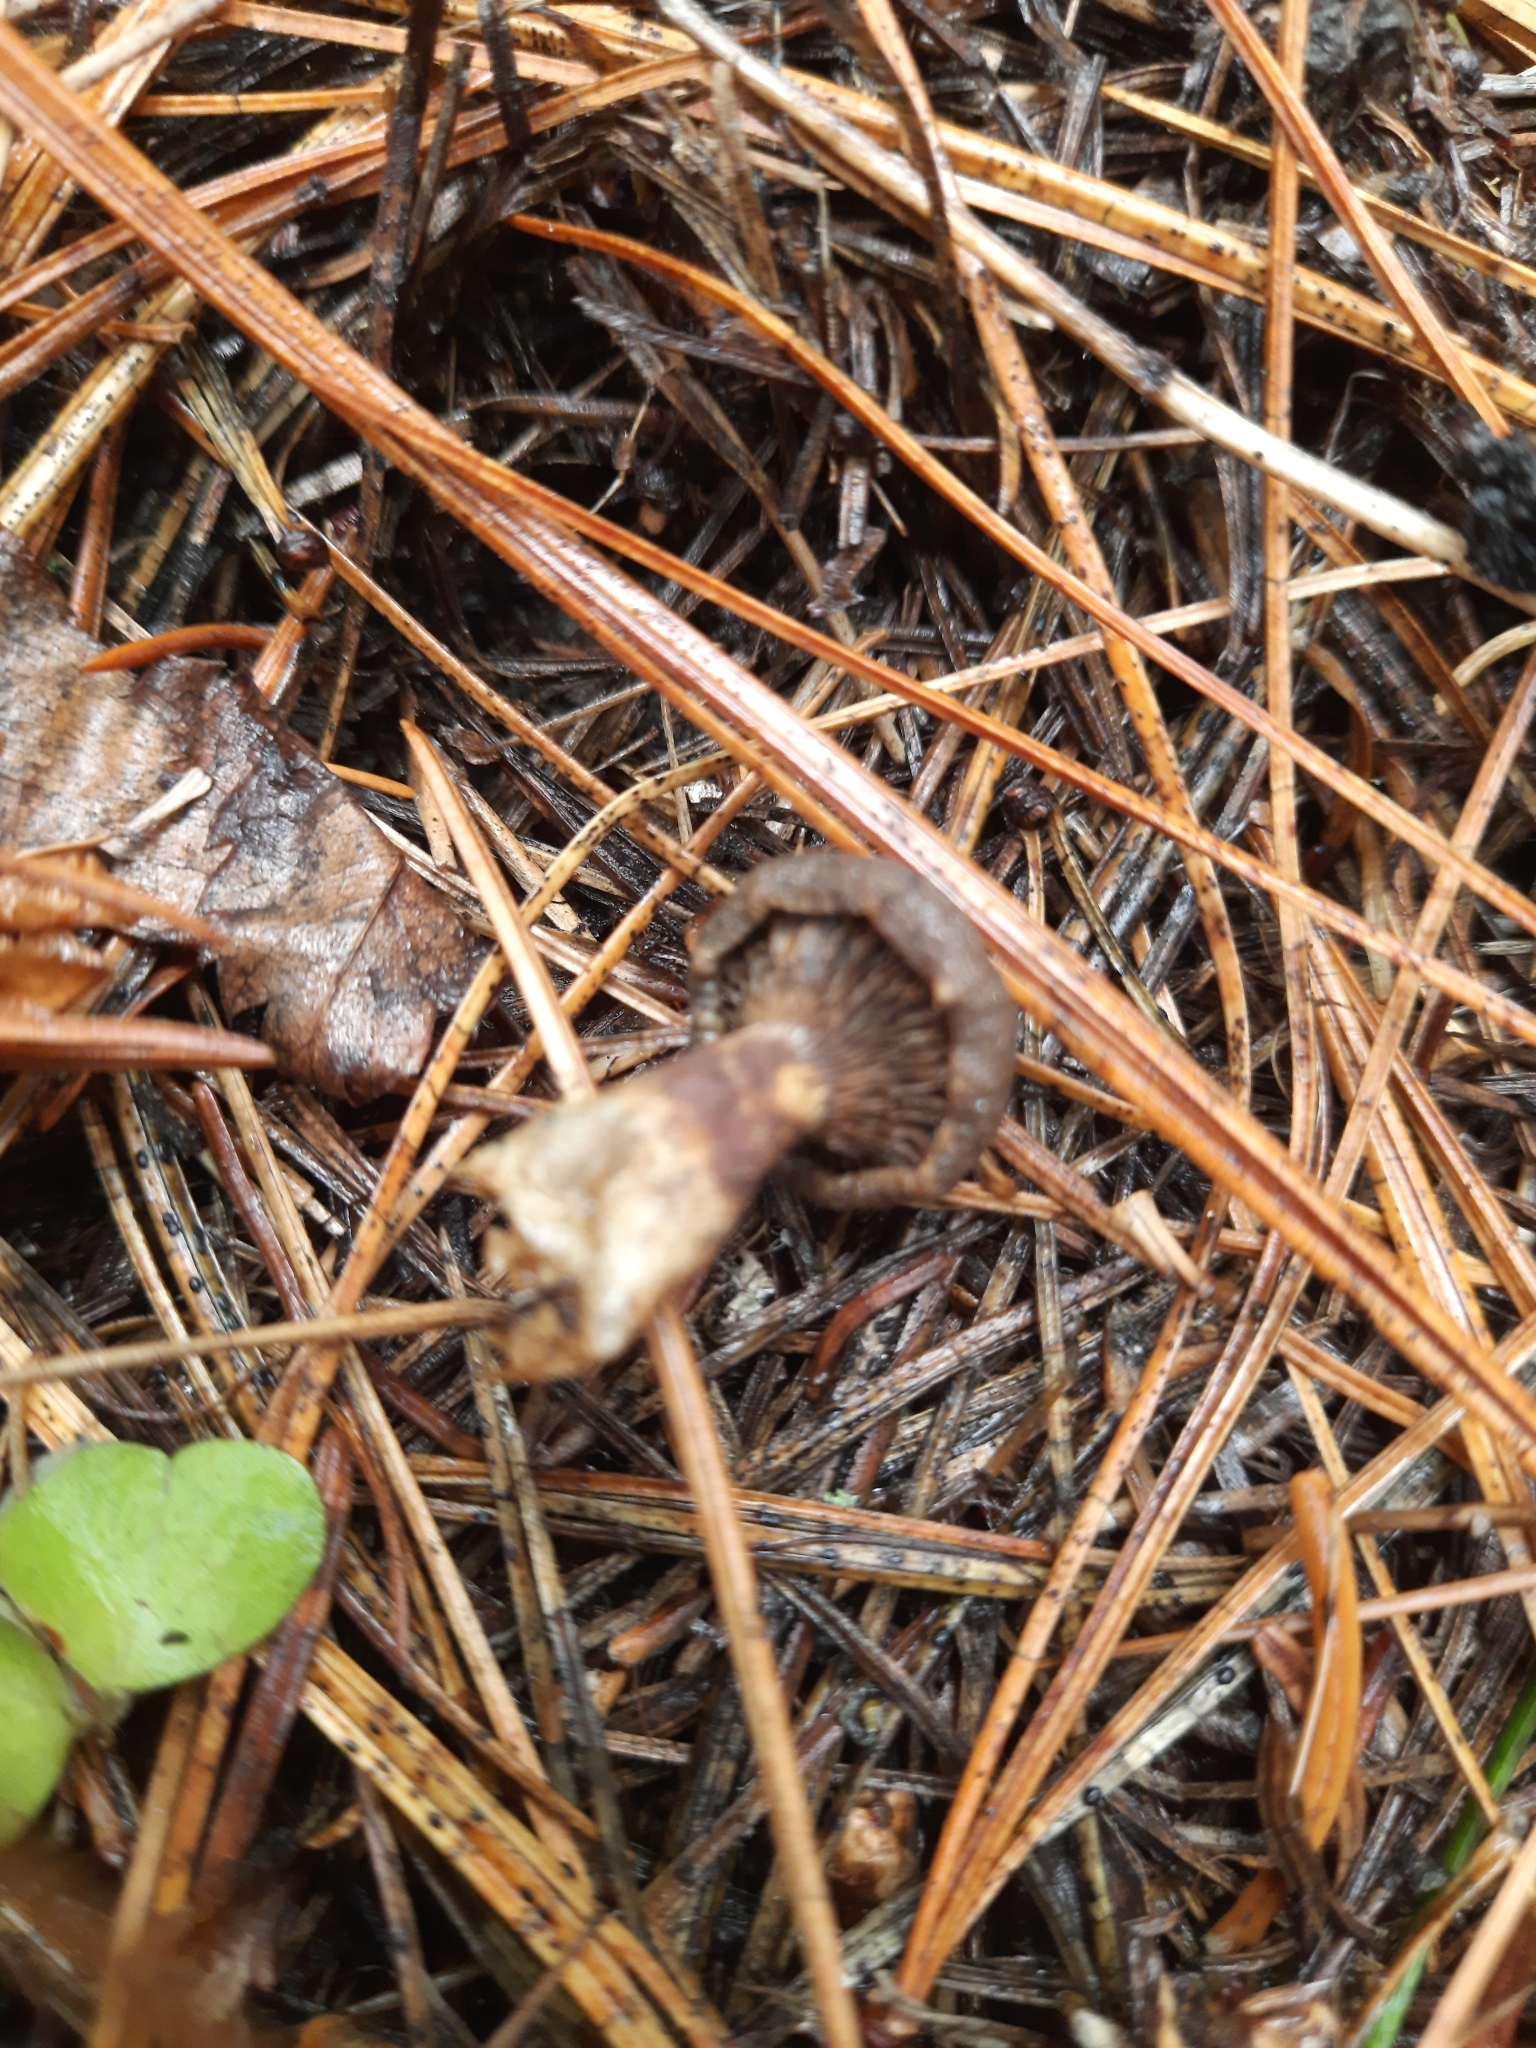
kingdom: Fungi
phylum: Basidiomycota
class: Agaricomycetes
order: Russulales
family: Russulaceae
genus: Lactarius
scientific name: Lactarius deterrimus
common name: False saffron milkcap
